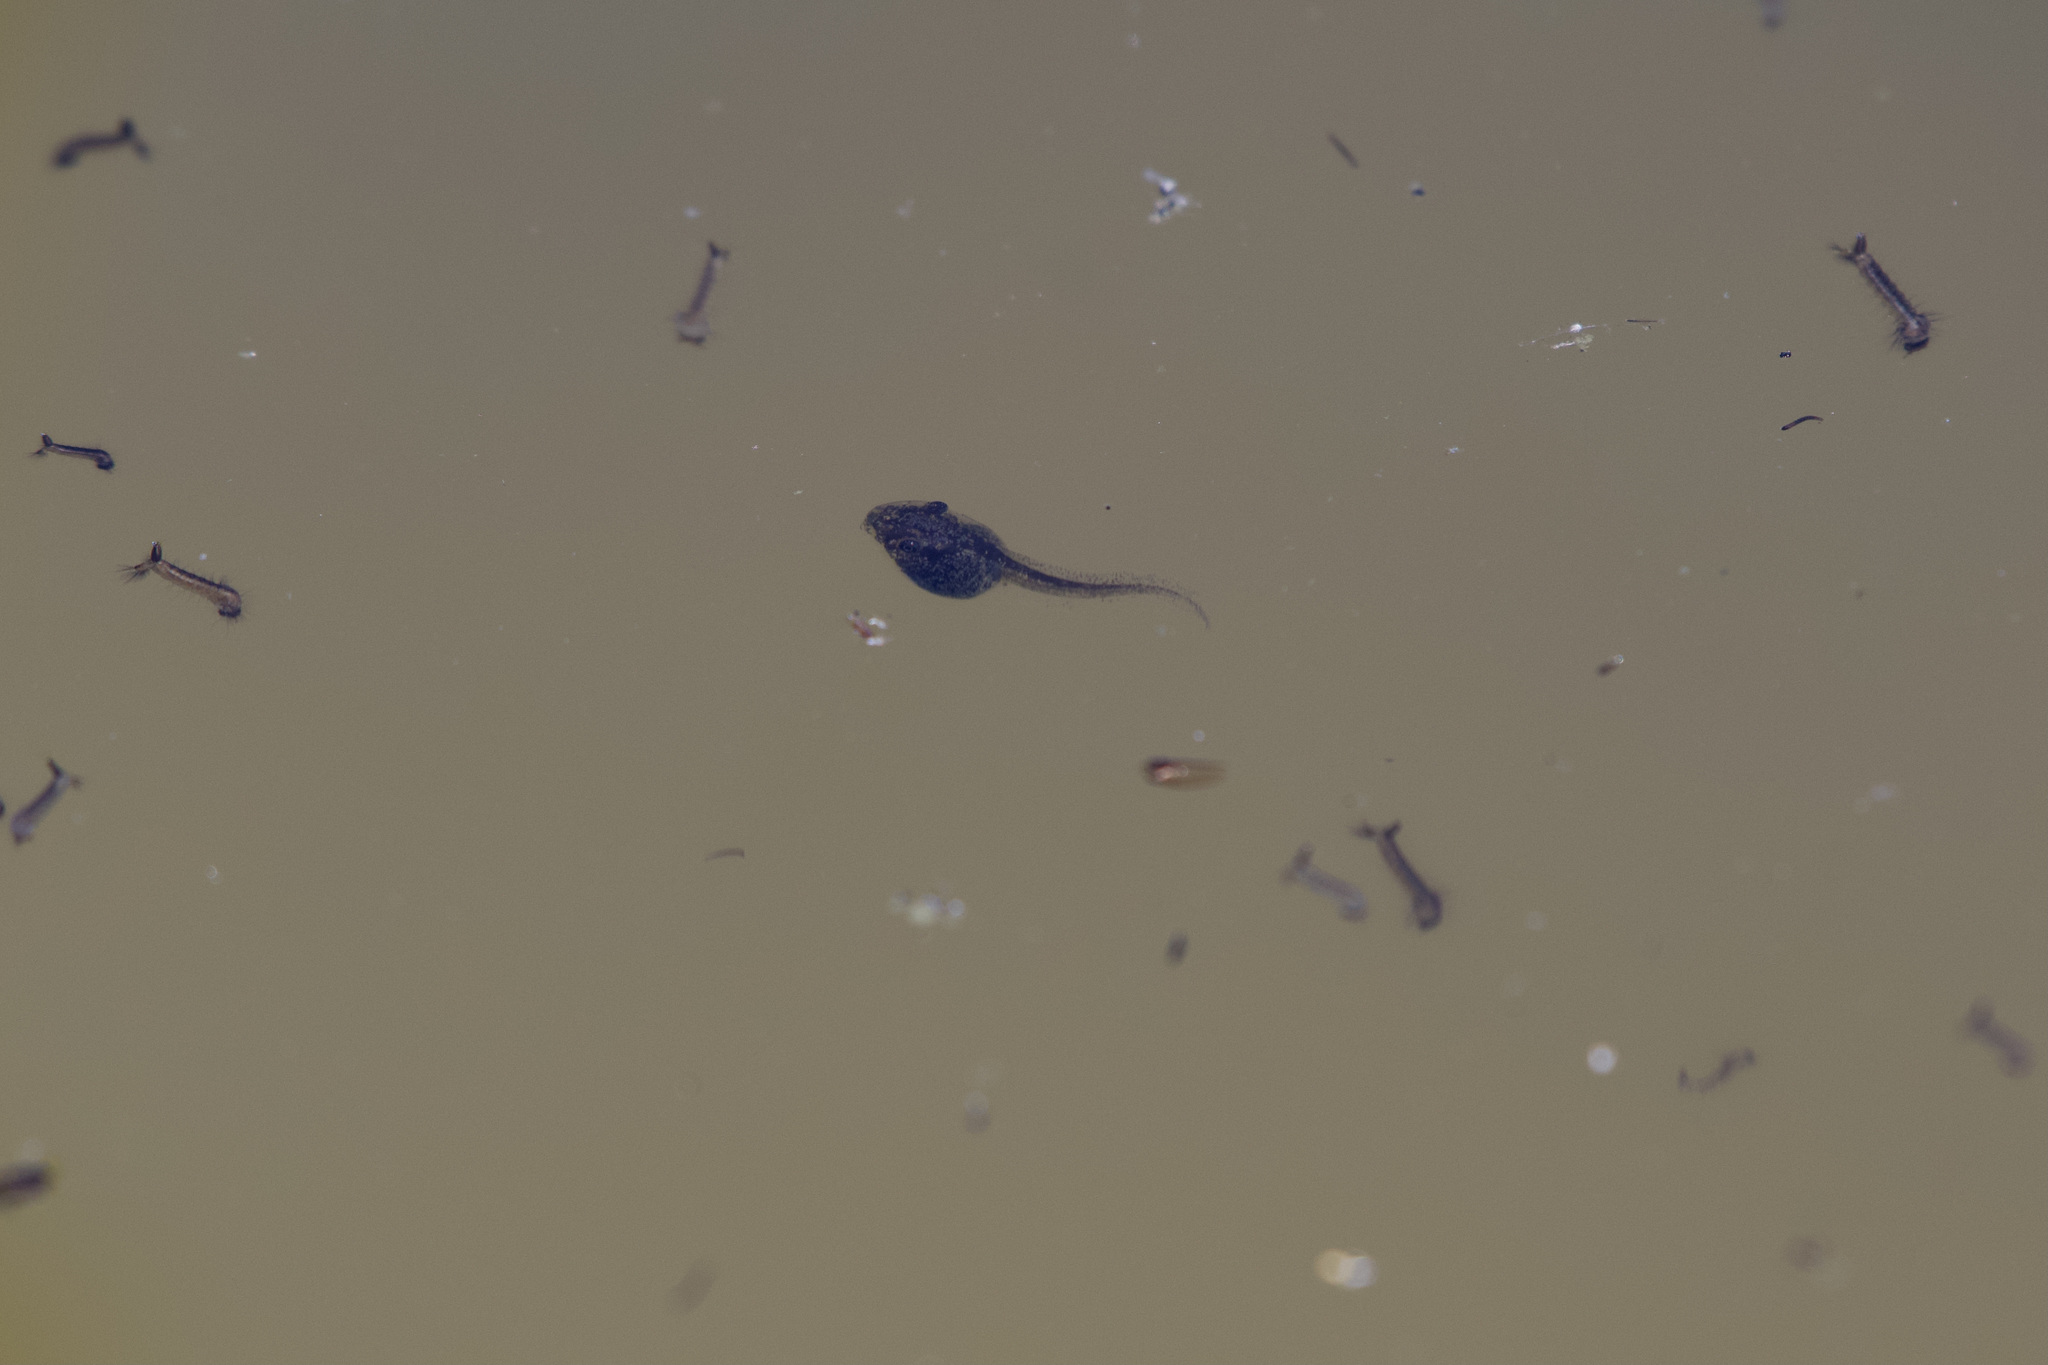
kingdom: Animalia
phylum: Chordata
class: Amphibia
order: Anura
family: Hylidae
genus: Pseudacris
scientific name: Pseudacris regilla
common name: Pacific chorus frog
